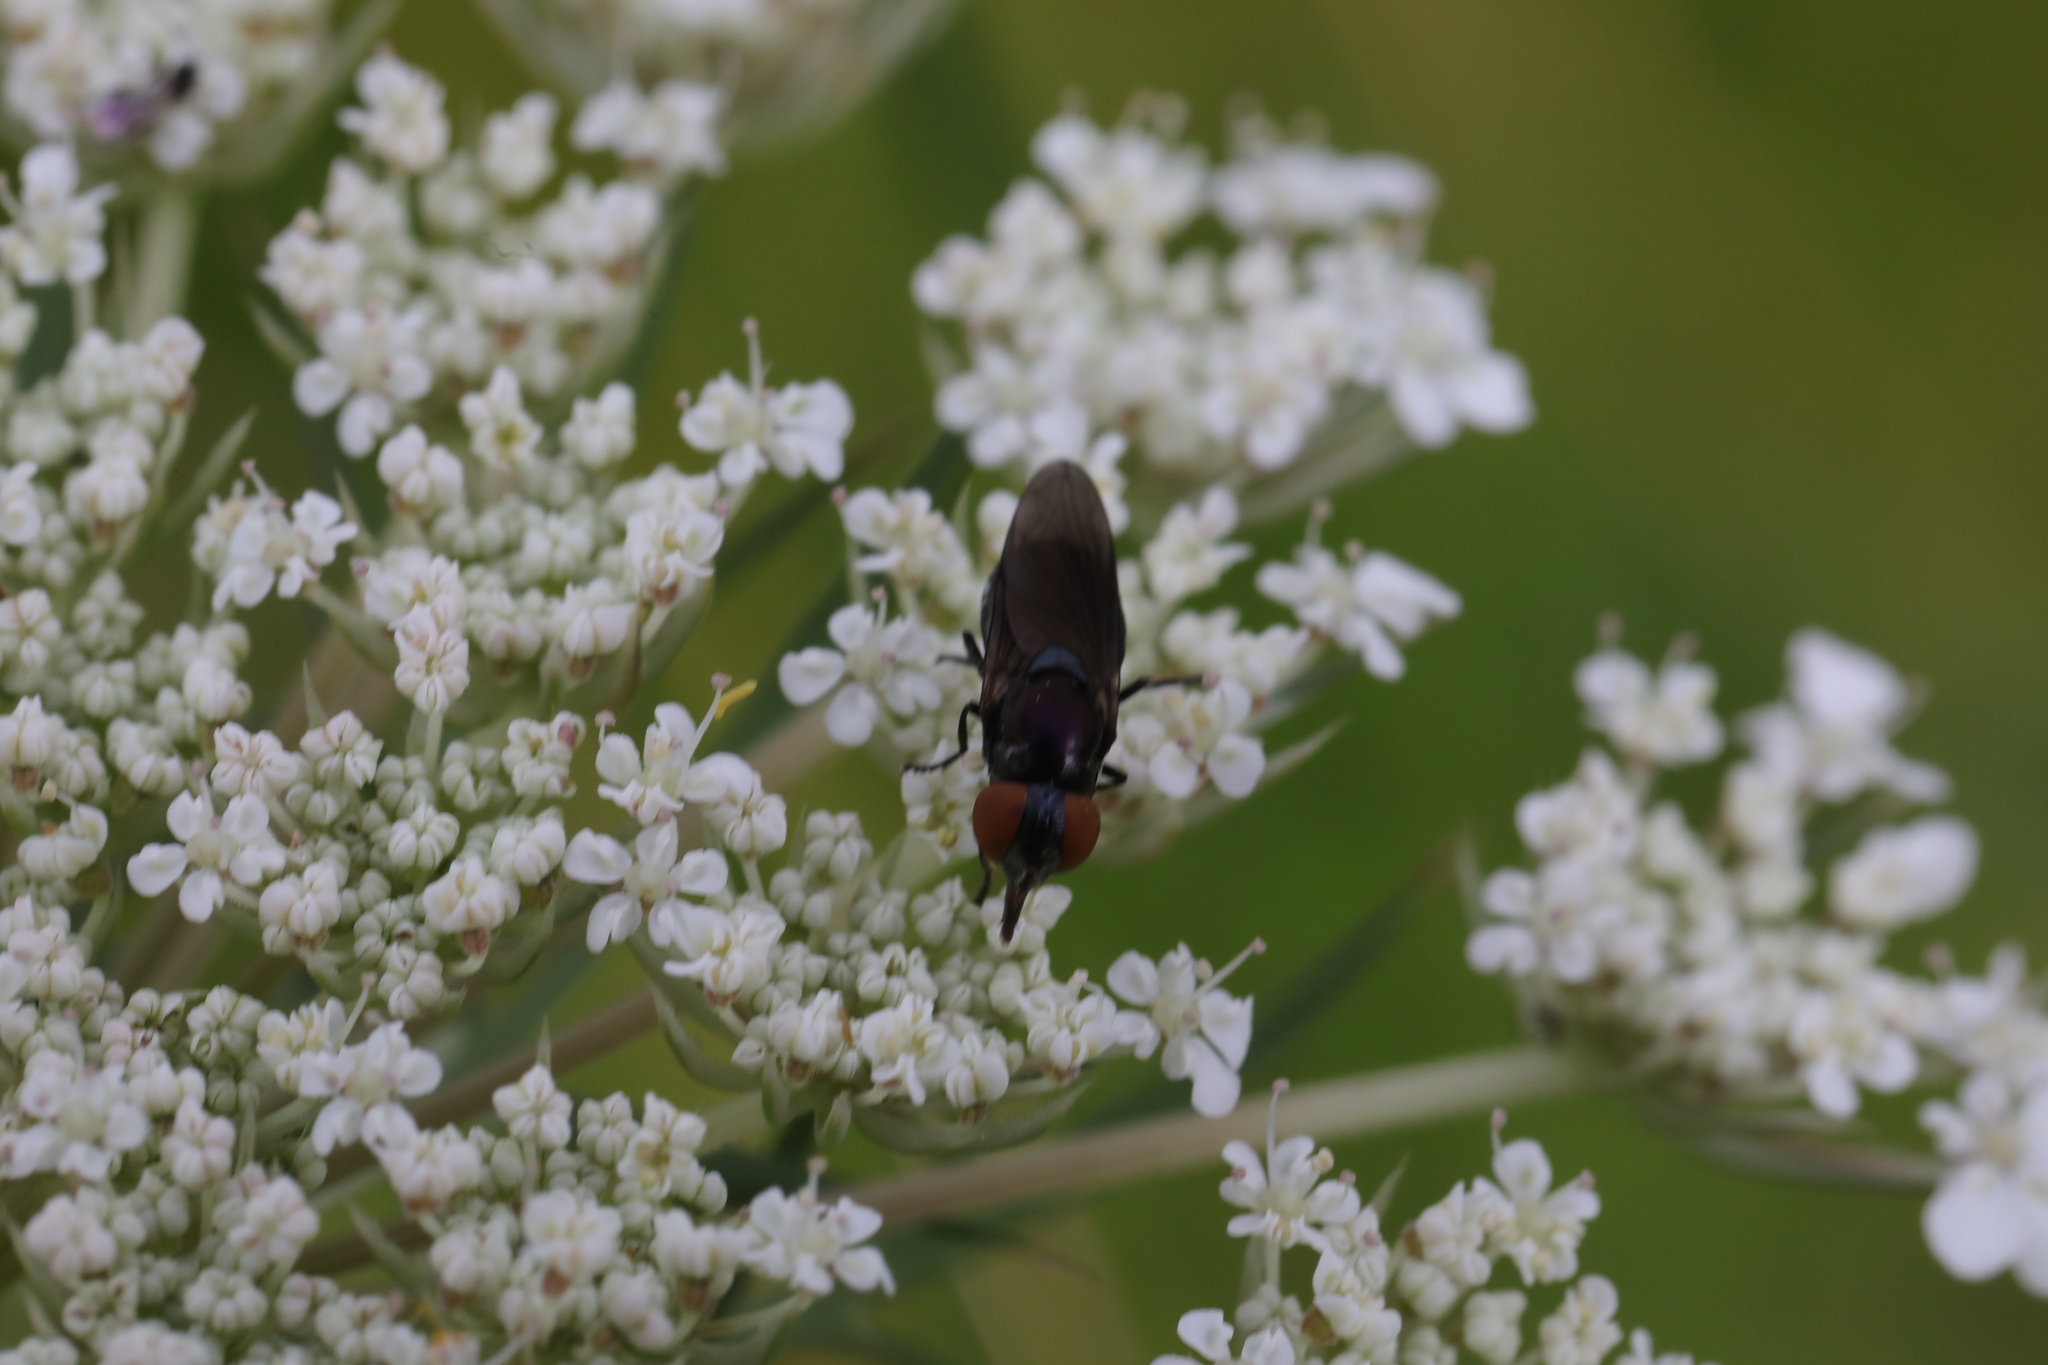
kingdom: Animalia
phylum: Arthropoda
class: Insecta
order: Diptera
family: Syrphidae
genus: Chrysogaster
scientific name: Chrysogaster solstitialis
